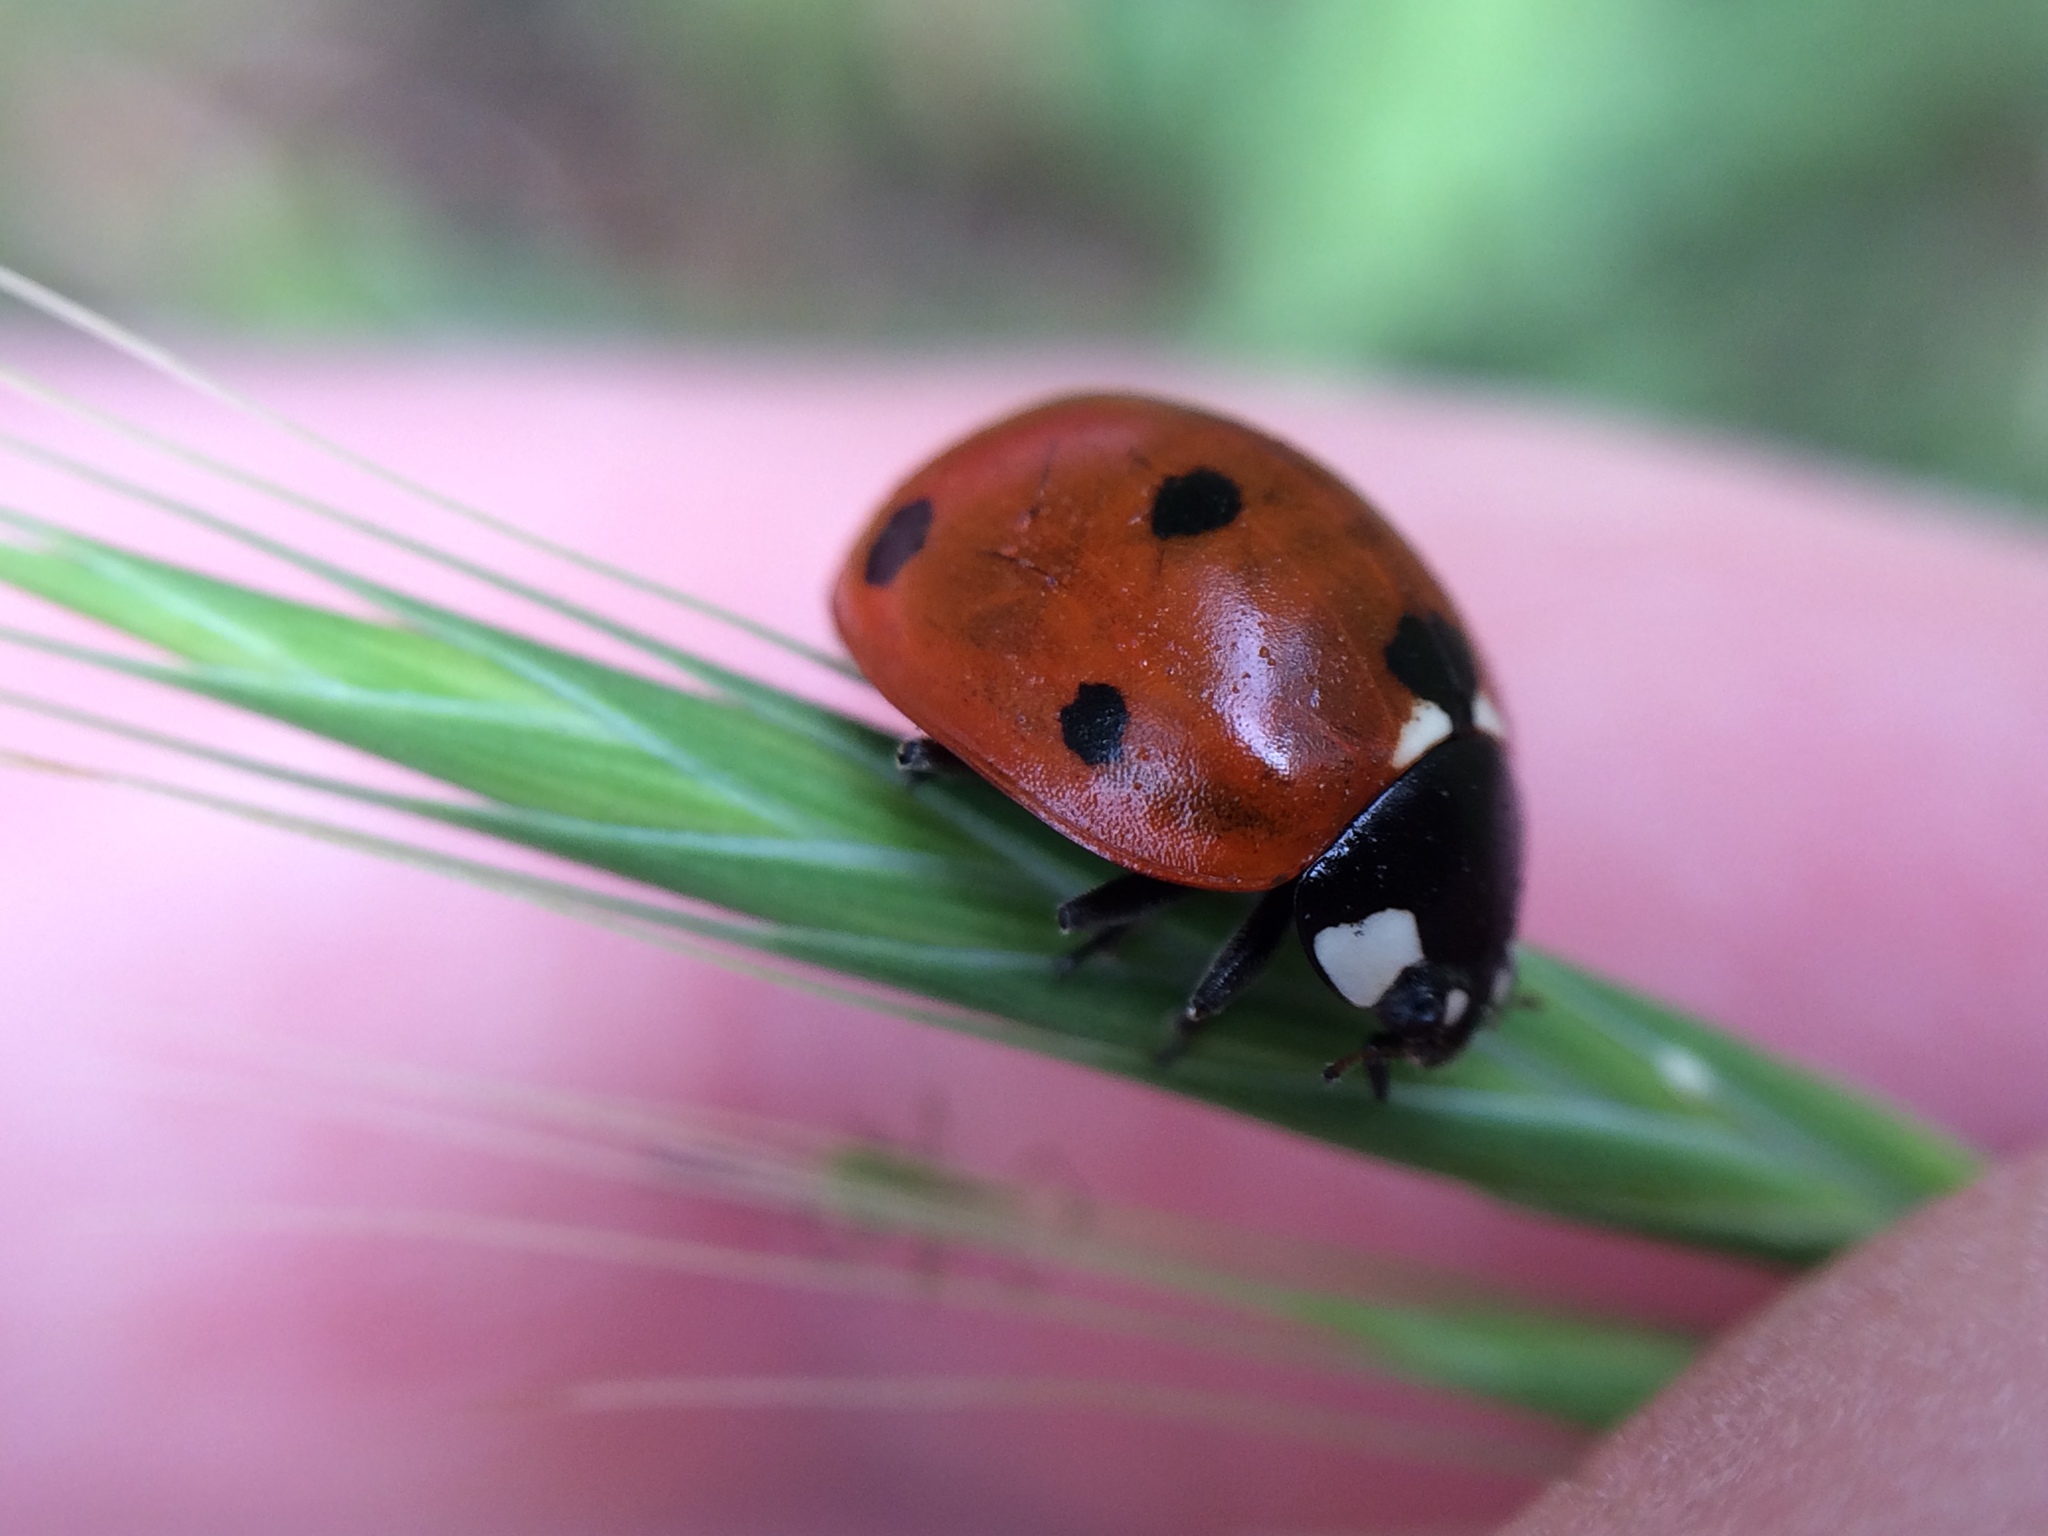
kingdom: Animalia
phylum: Arthropoda
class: Insecta
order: Coleoptera
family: Coccinellidae
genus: Coccinella
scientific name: Coccinella septempunctata
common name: Sevenspotted lady beetle
